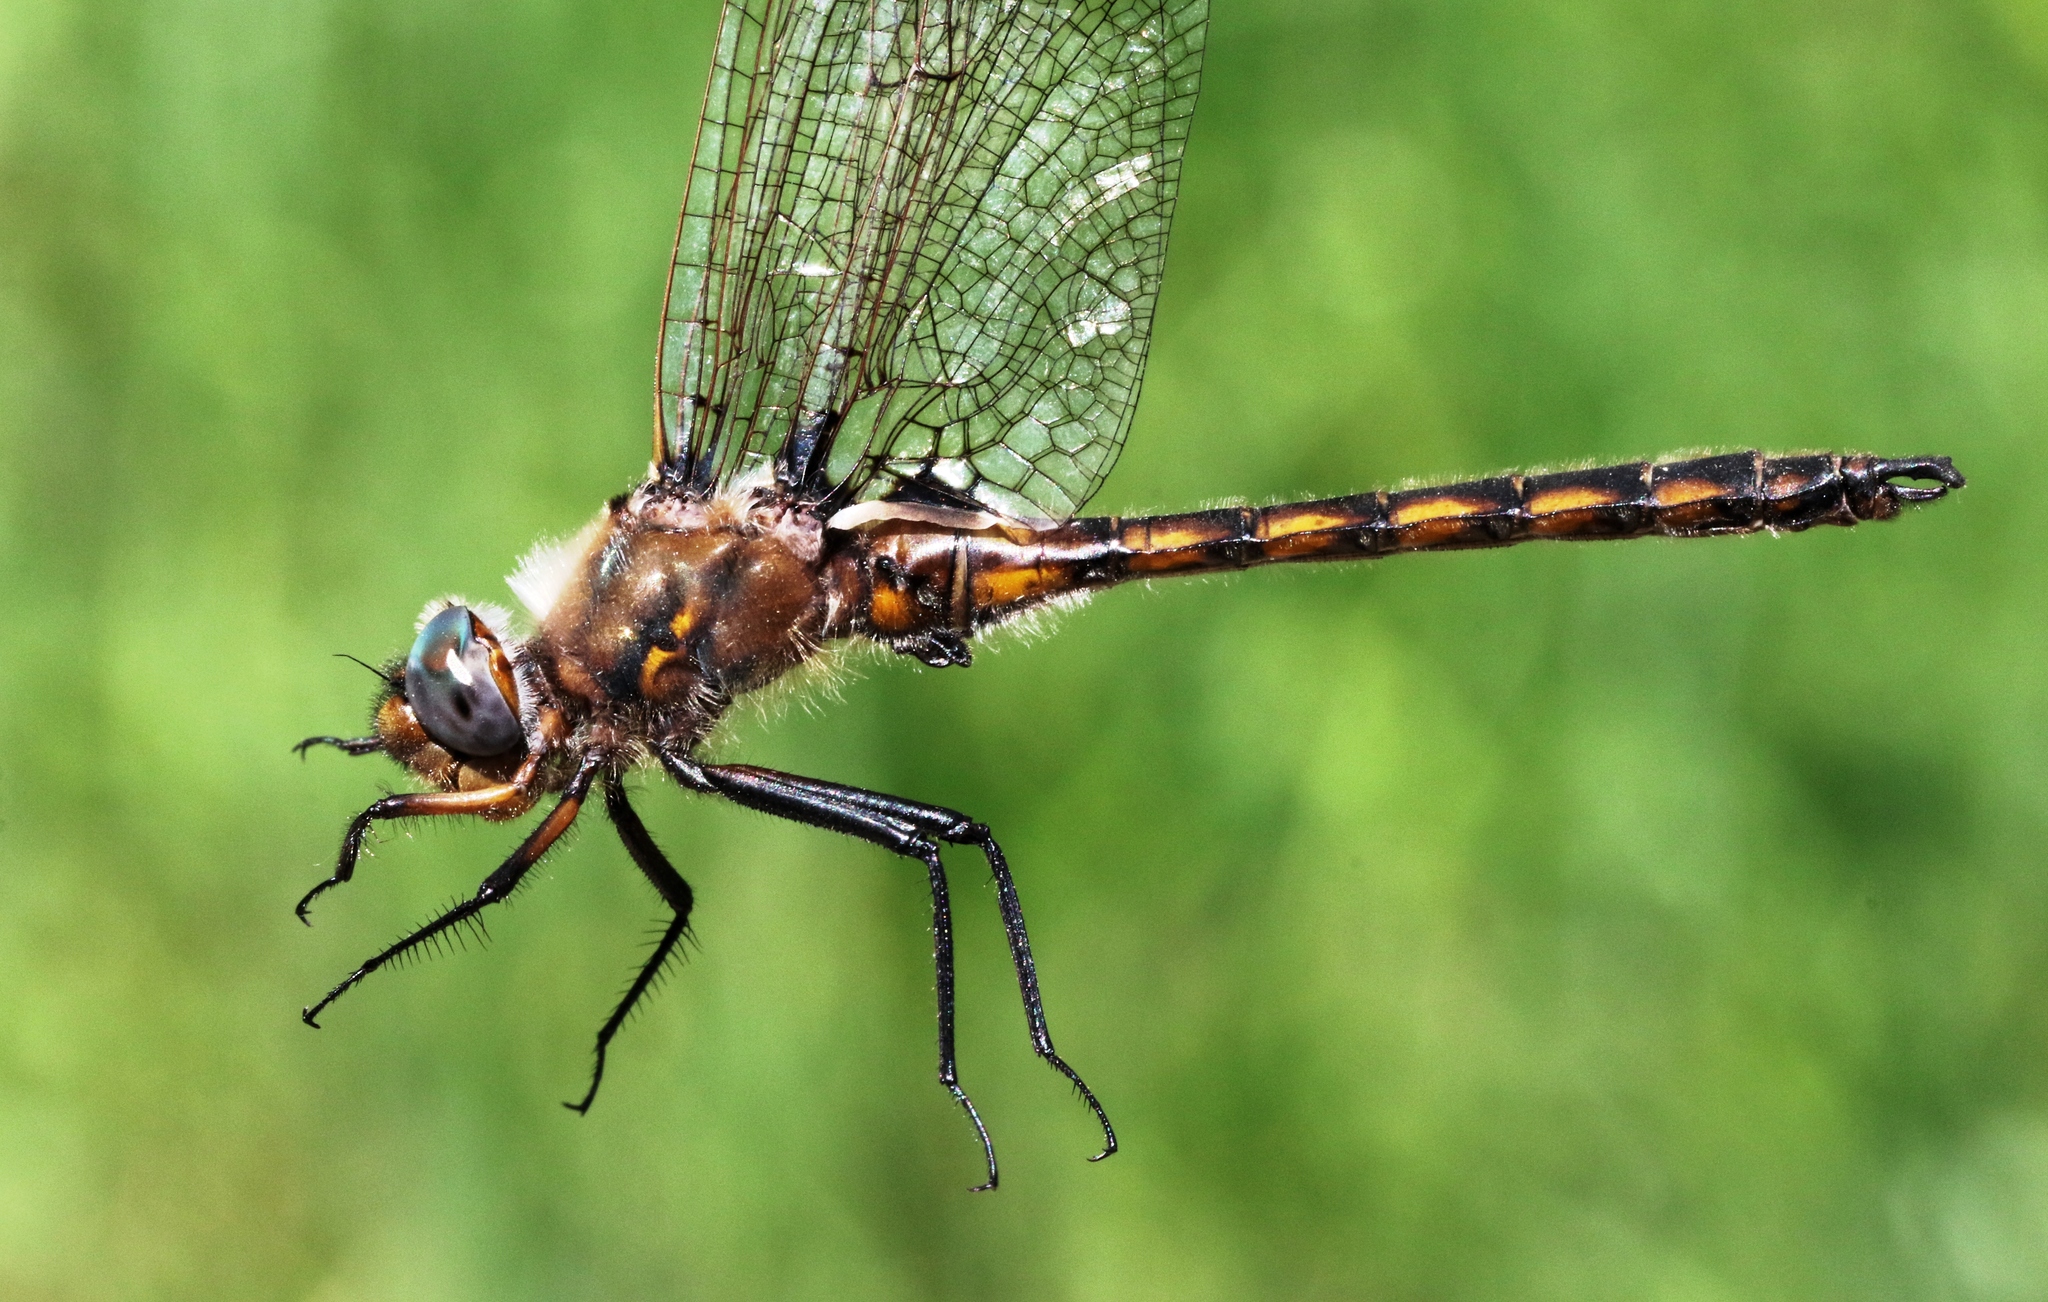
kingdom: Animalia
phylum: Arthropoda
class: Insecta
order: Odonata
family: Corduliidae
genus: Epitheca
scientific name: Epitheca canis
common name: Beaverpond baskettail
